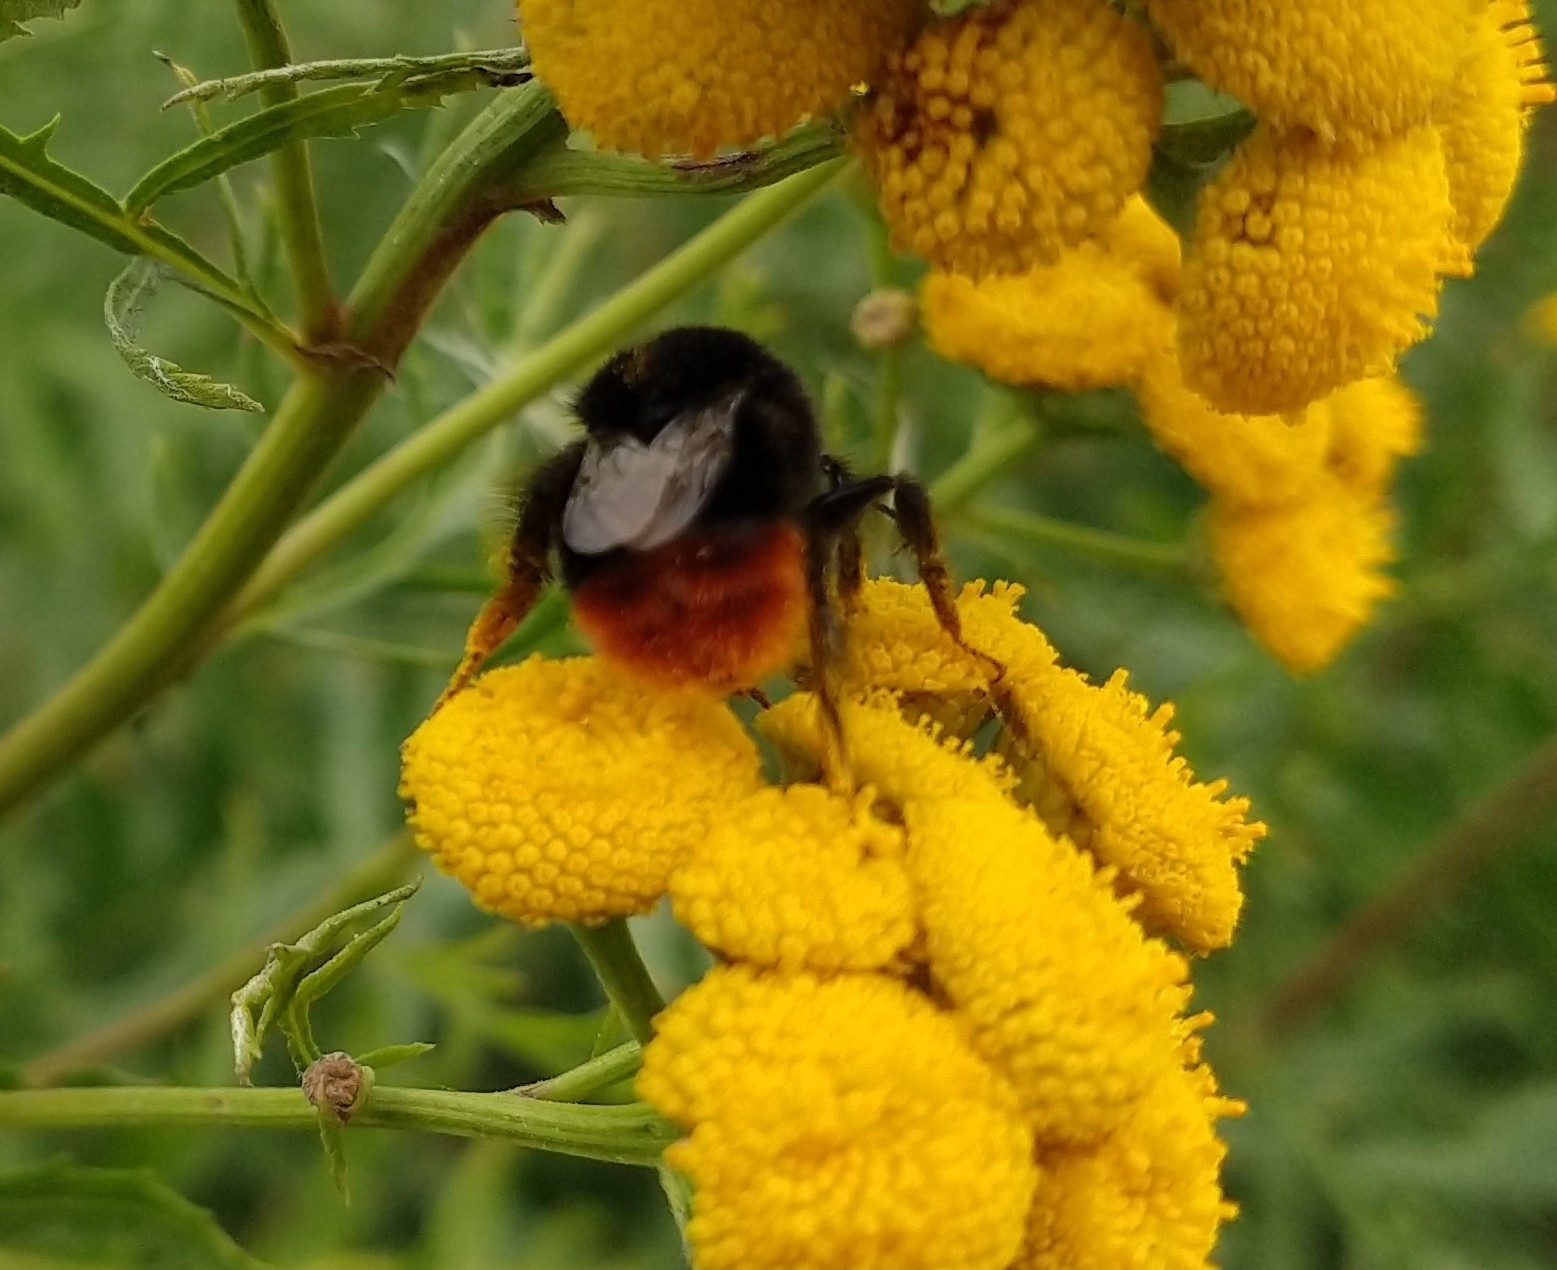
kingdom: Animalia
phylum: Arthropoda
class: Insecta
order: Hymenoptera
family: Apidae
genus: Bombus
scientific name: Bombus lapidarius
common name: Large red-tailed humble-bee
